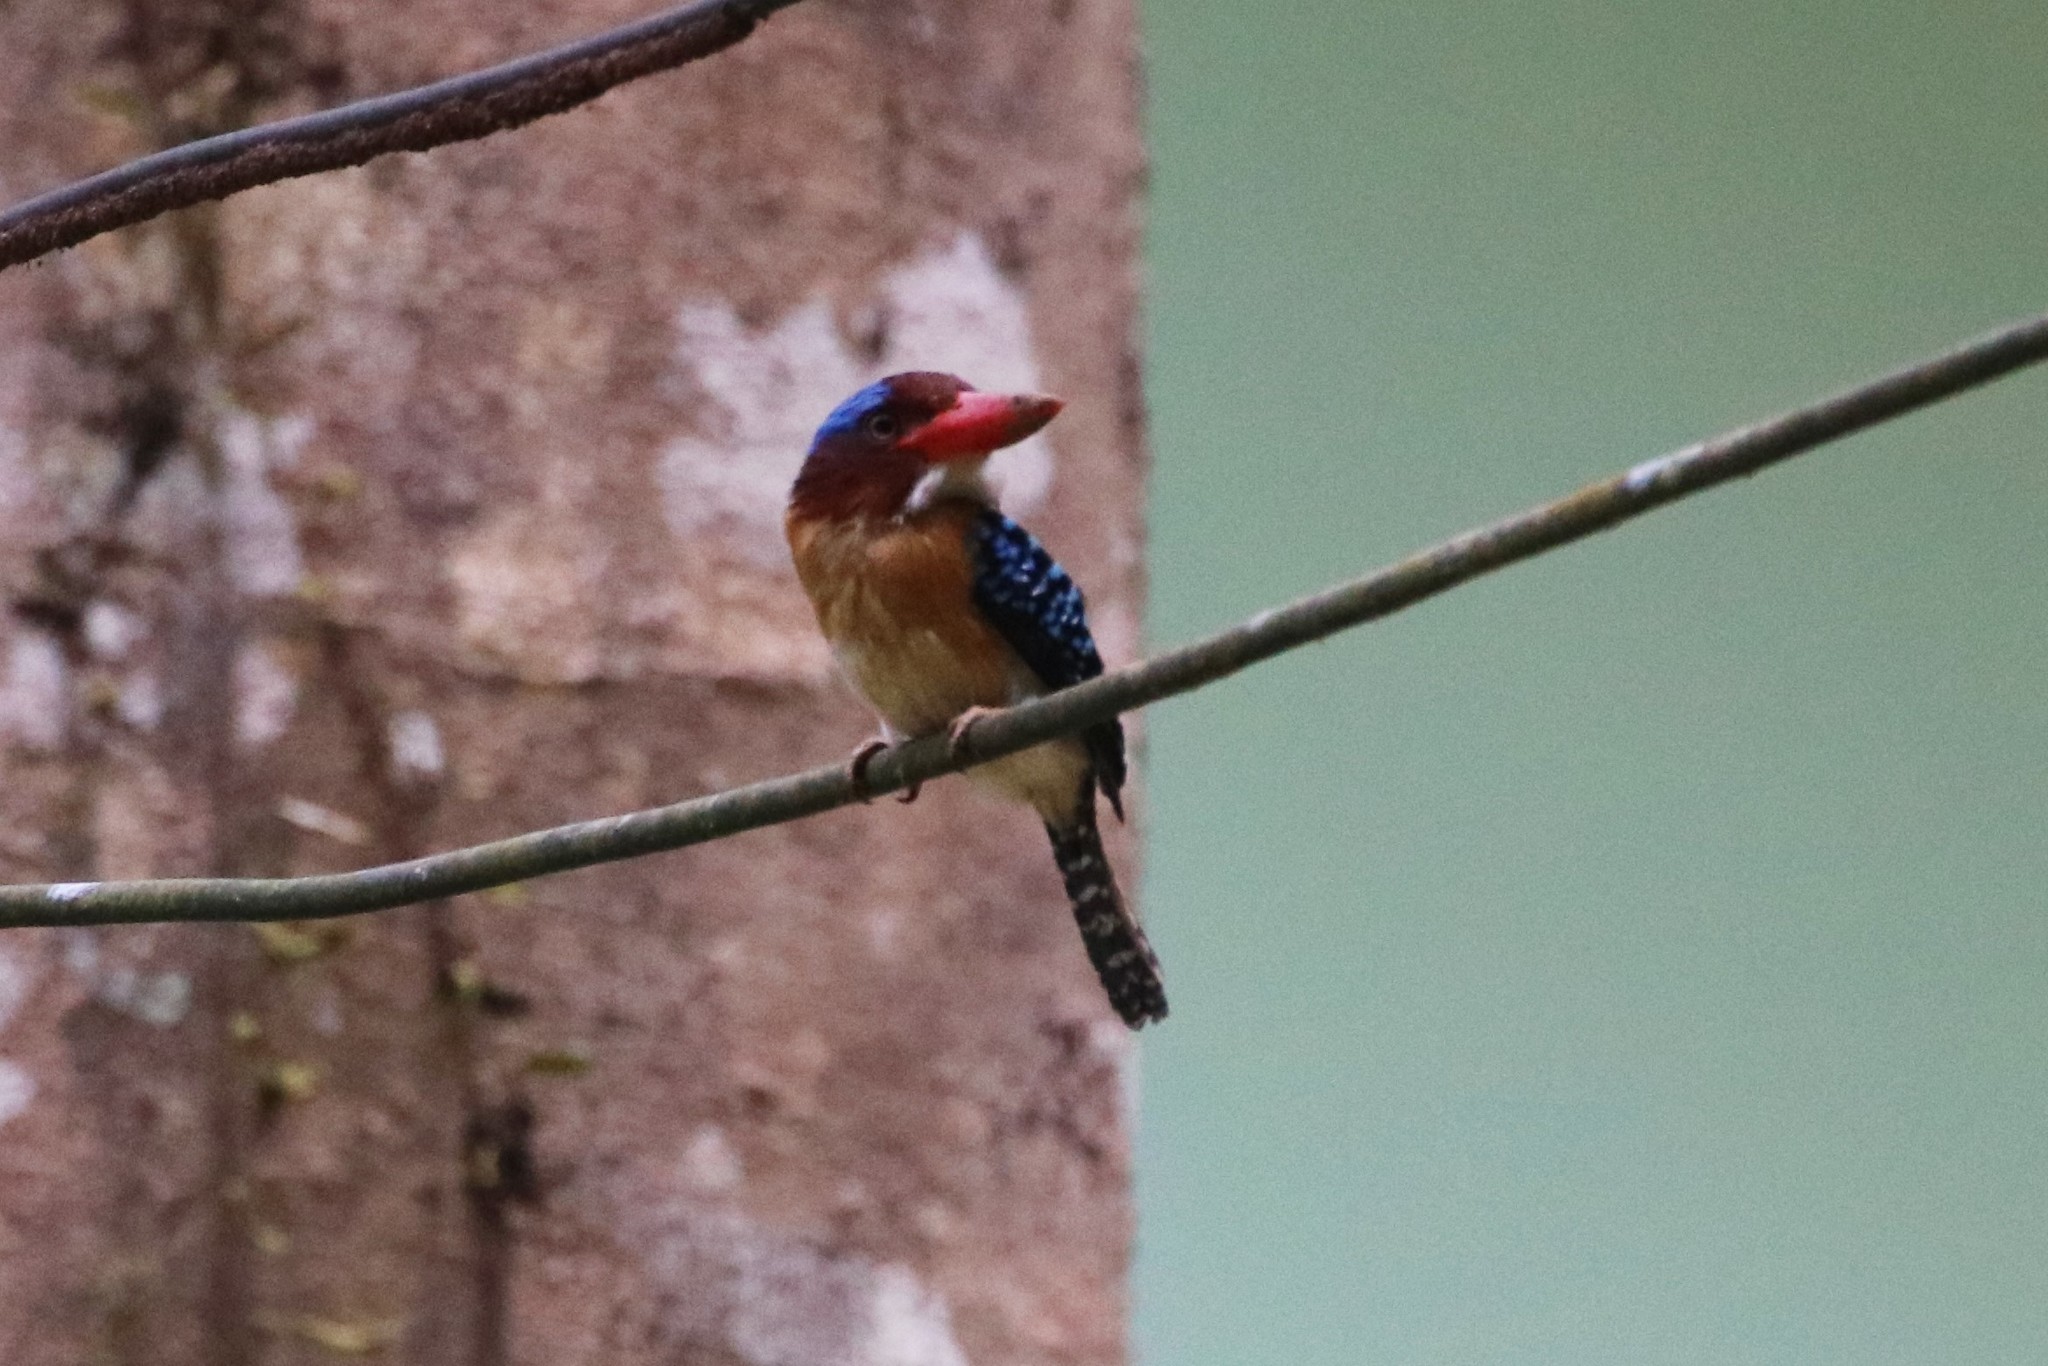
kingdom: Animalia
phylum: Chordata
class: Aves
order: Coraciiformes
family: Alcedinidae
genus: Lacedo
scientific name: Lacedo pulchella
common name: Banded kingfisher
